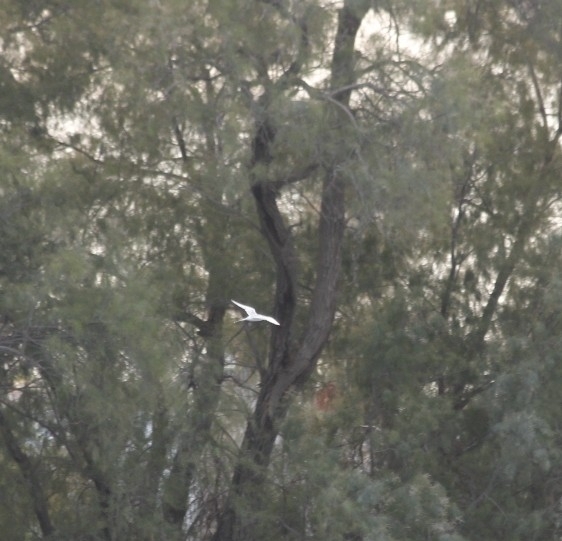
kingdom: Animalia
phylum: Chordata
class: Aves
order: Charadriiformes
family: Laridae
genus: Sterna
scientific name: Sterna forsteri
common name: Forster's tern
